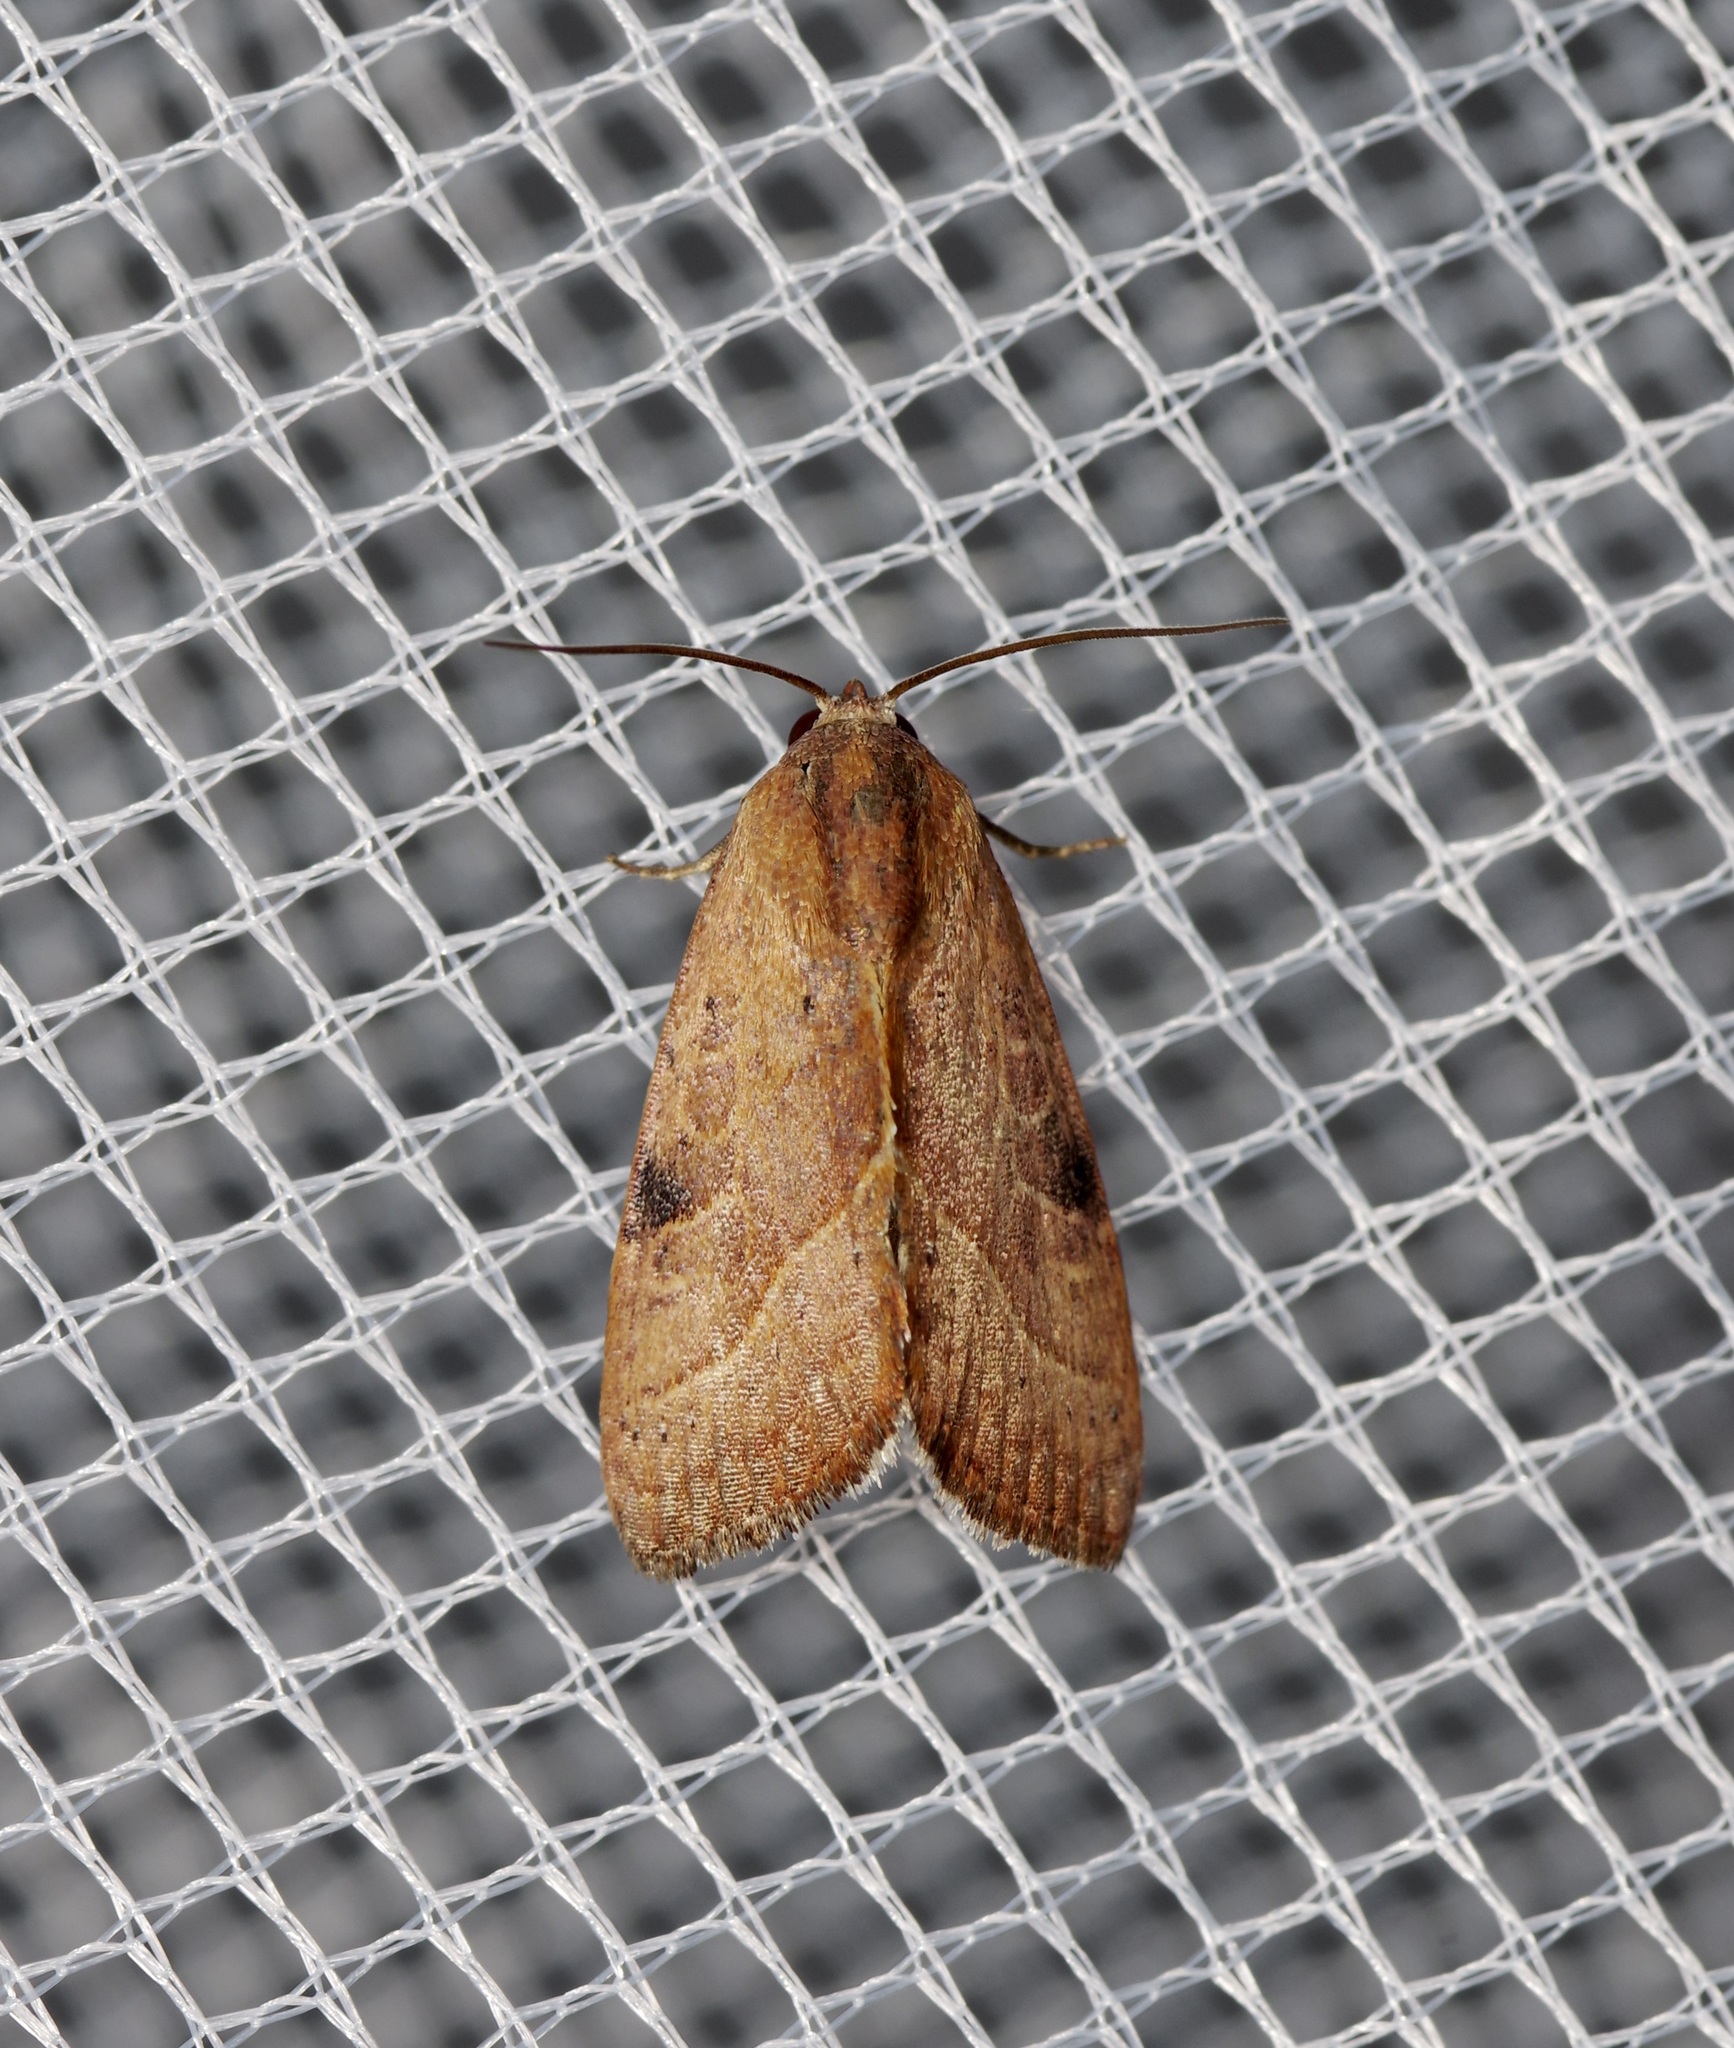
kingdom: Animalia
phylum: Arthropoda
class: Insecta
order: Lepidoptera
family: Noctuidae
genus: Galgula
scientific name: Galgula partita
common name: Wedgeling
